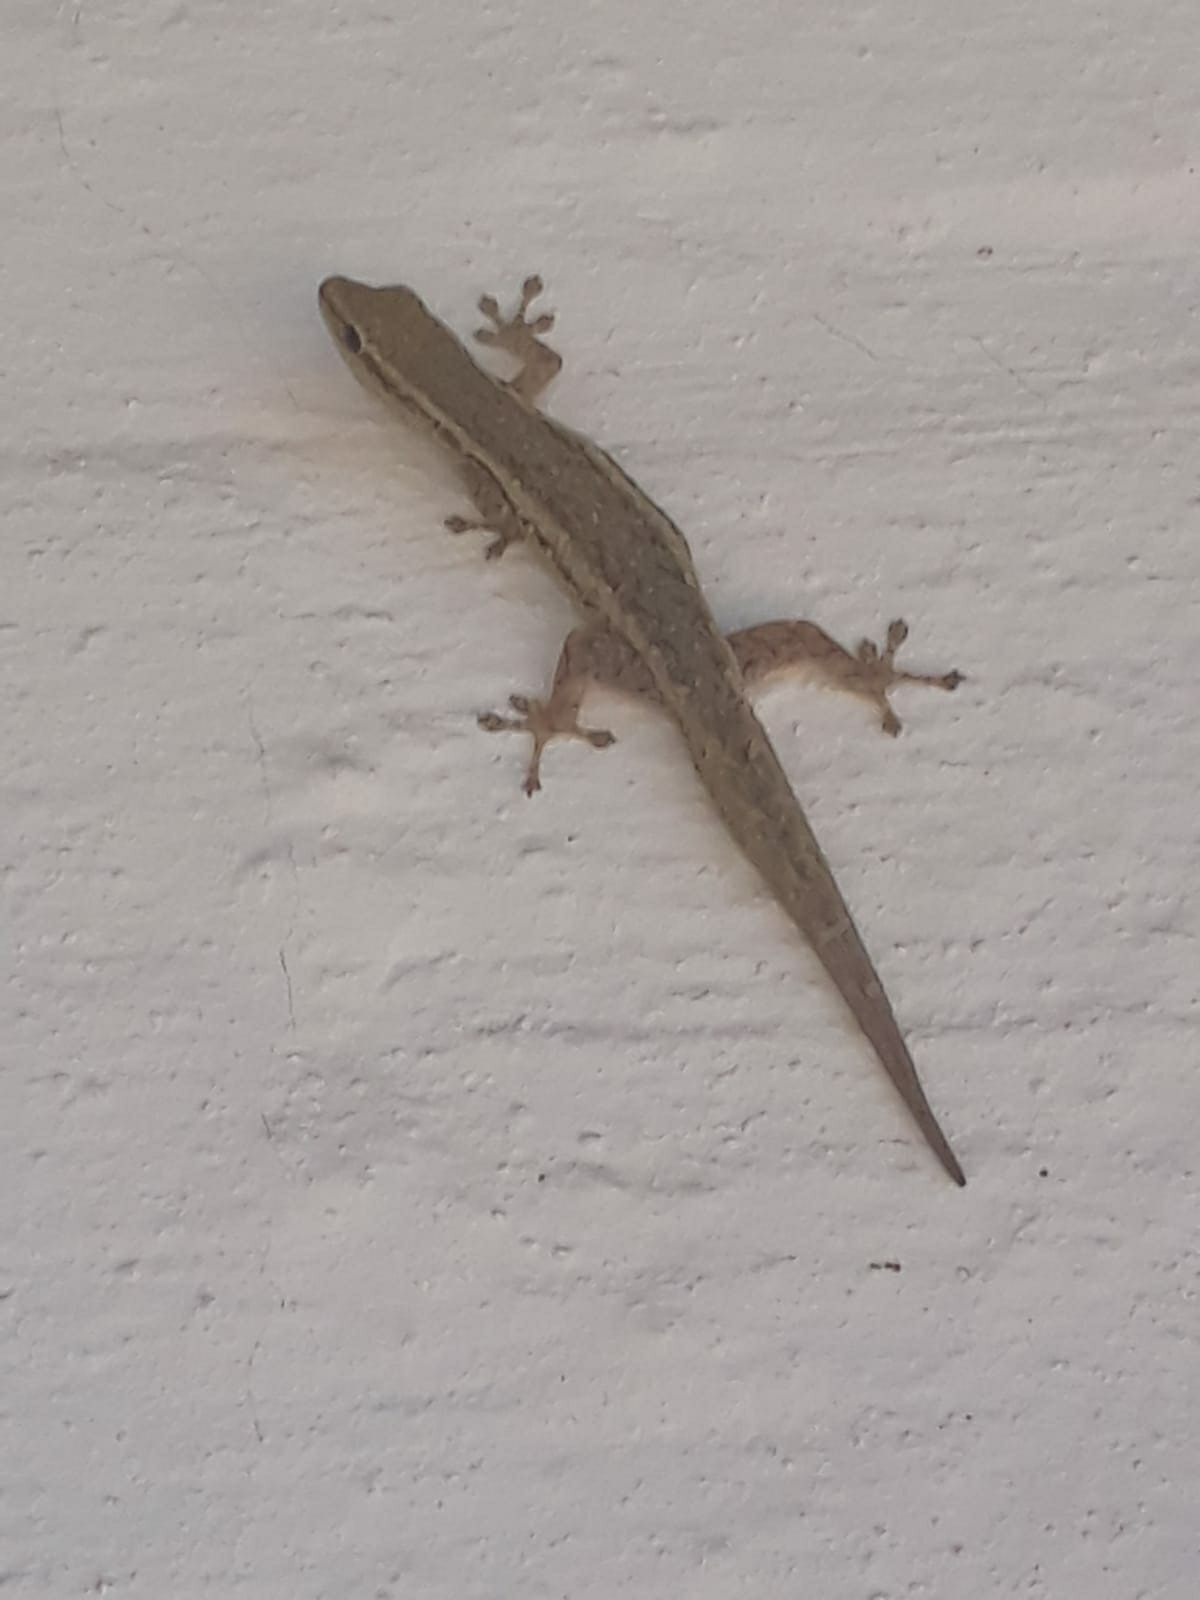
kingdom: Animalia
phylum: Chordata
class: Squamata
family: Gekkonidae
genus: Lygodactylus
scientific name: Lygodactylus capensis
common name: Cape dwarf gecko
